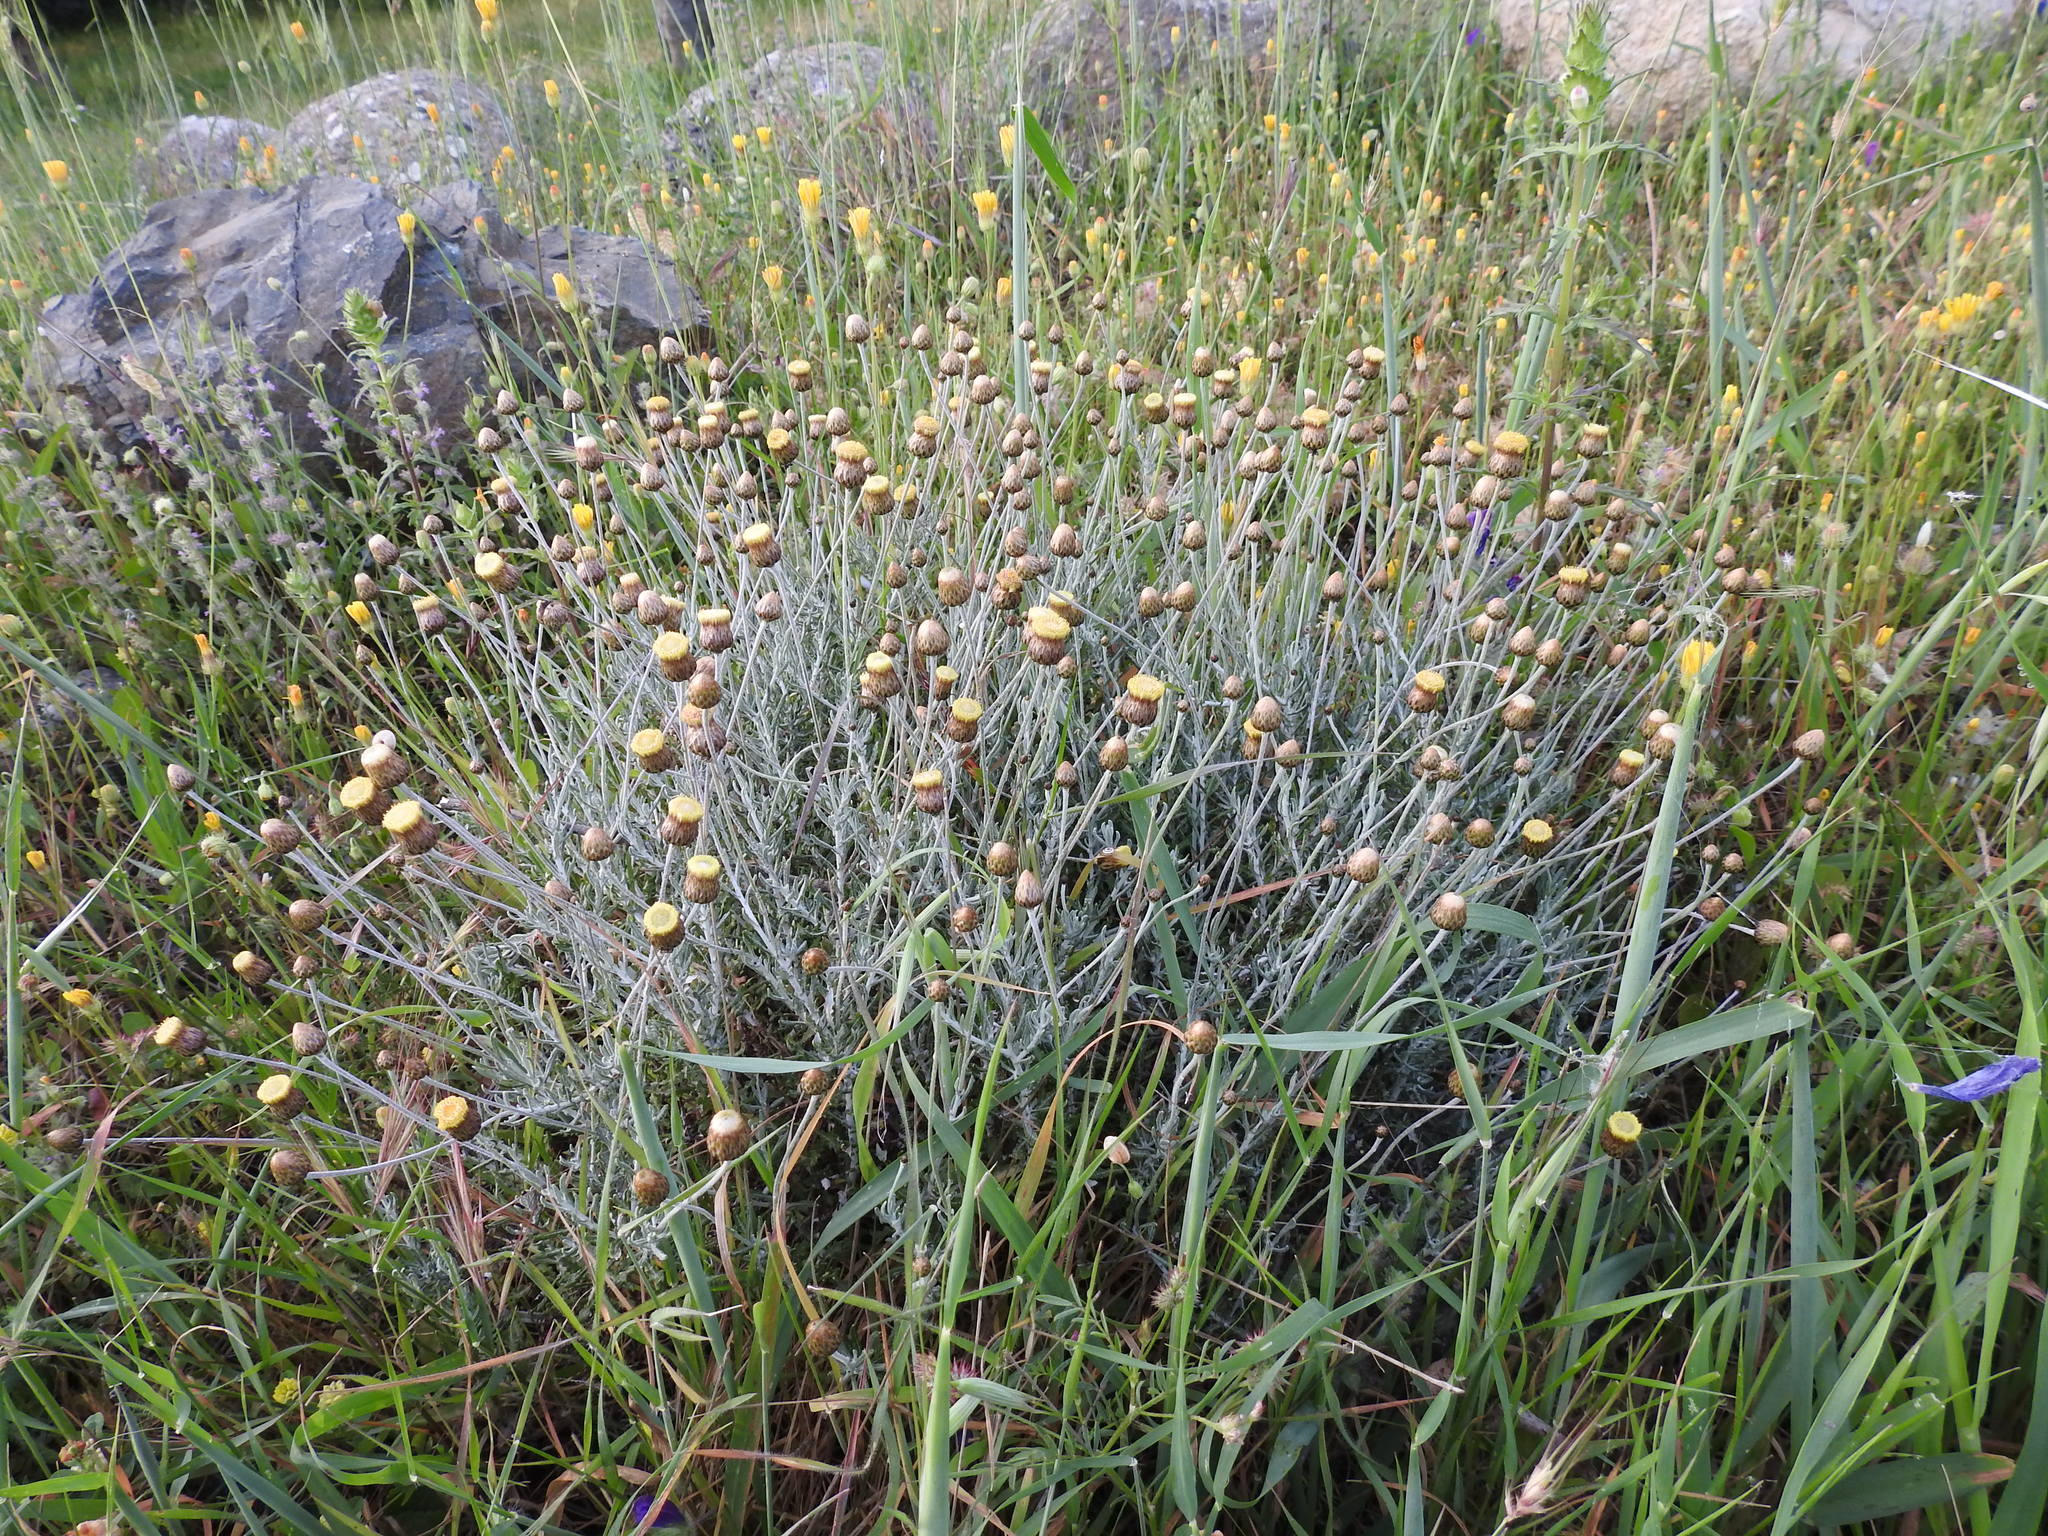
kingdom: Plantae
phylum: Tracheophyta
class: Magnoliopsida
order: Asterales
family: Asteraceae
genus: Phagnalon
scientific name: Phagnalon graecum
